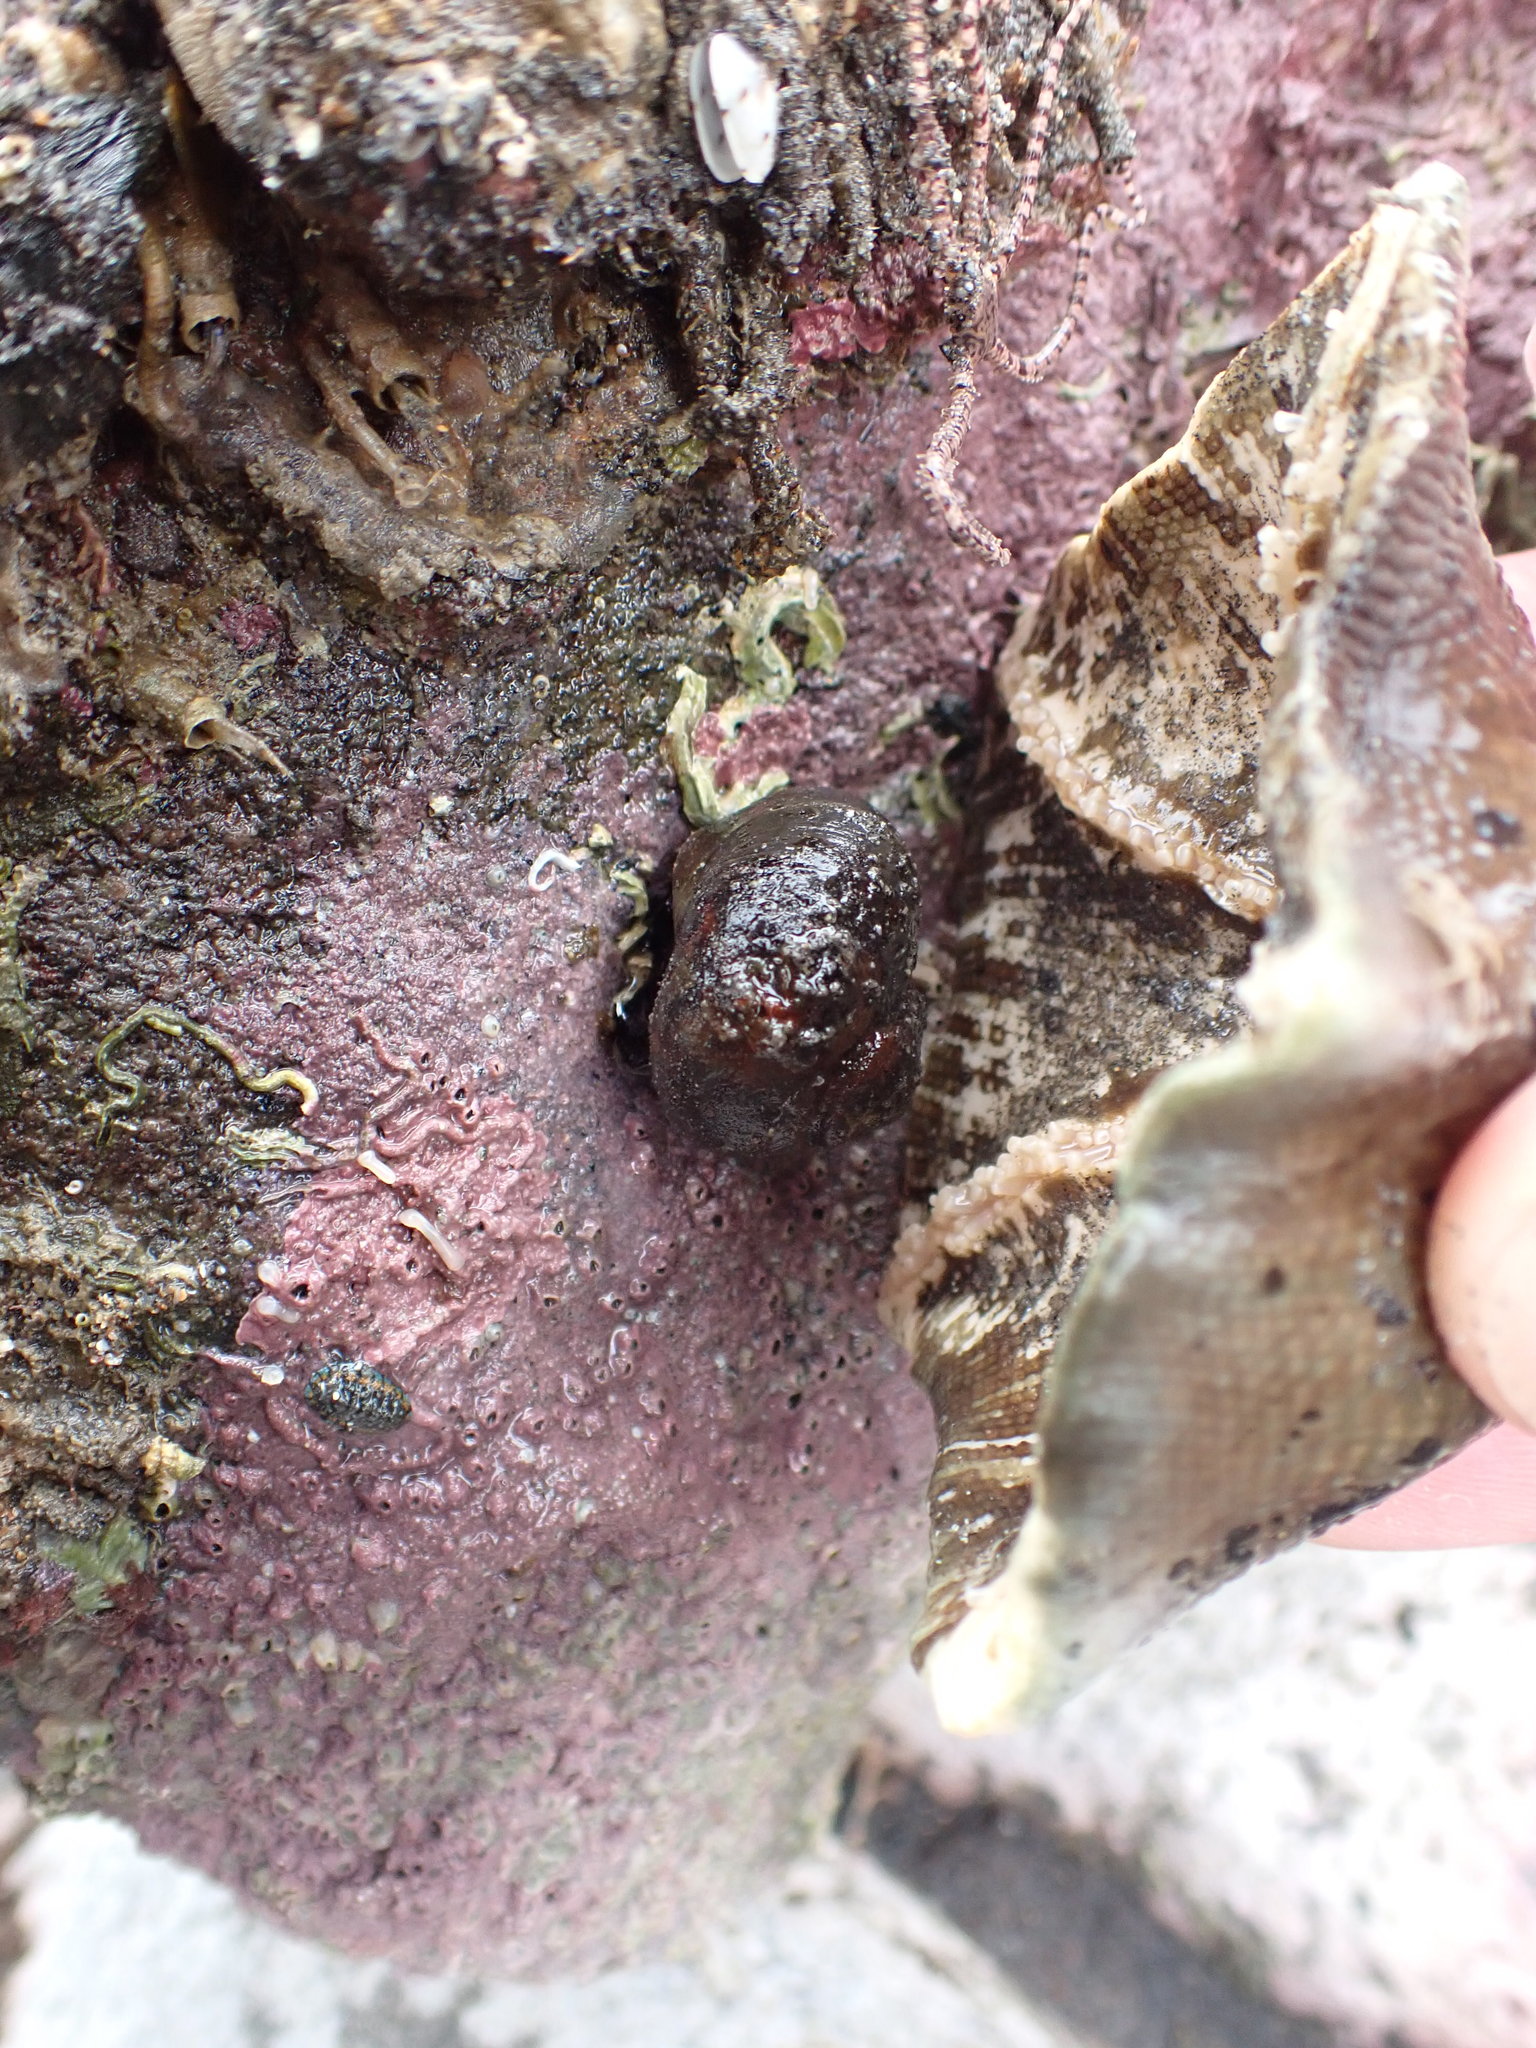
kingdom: Animalia
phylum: Echinodermata
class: Asteroidea
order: Valvatida
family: Asterinidae
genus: Stegnaster
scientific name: Stegnaster inflatus
